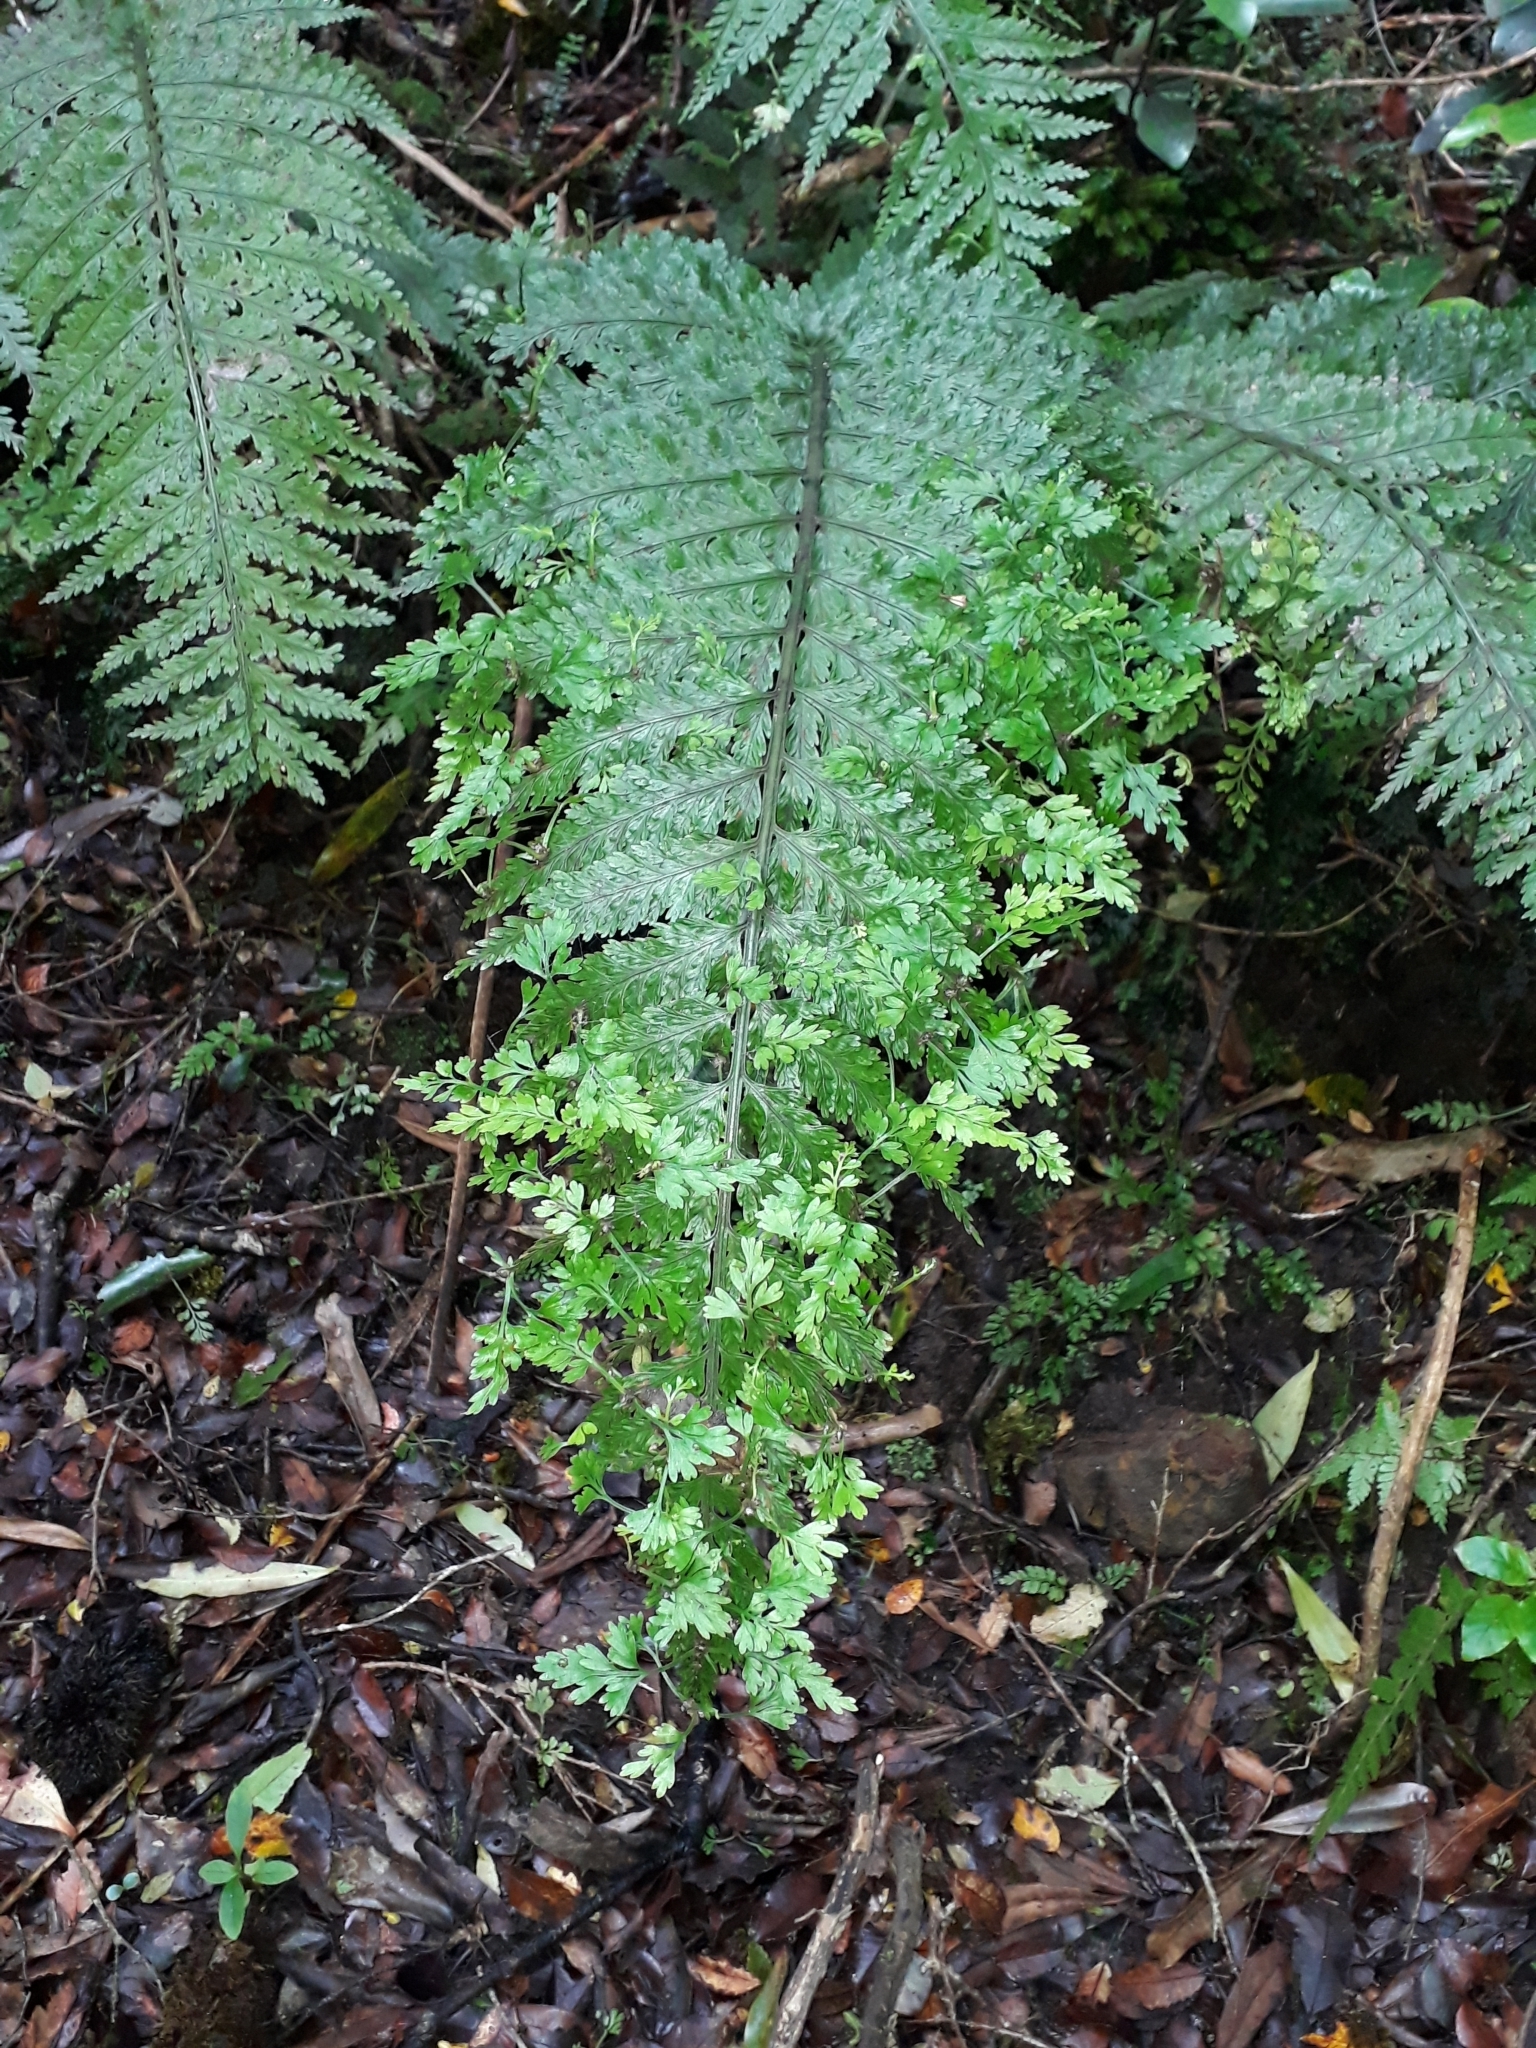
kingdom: Plantae
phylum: Tracheophyta
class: Polypodiopsida
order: Polypodiales
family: Aspleniaceae
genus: Asplenium
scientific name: Asplenium bulbiferum
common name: Mother fern
